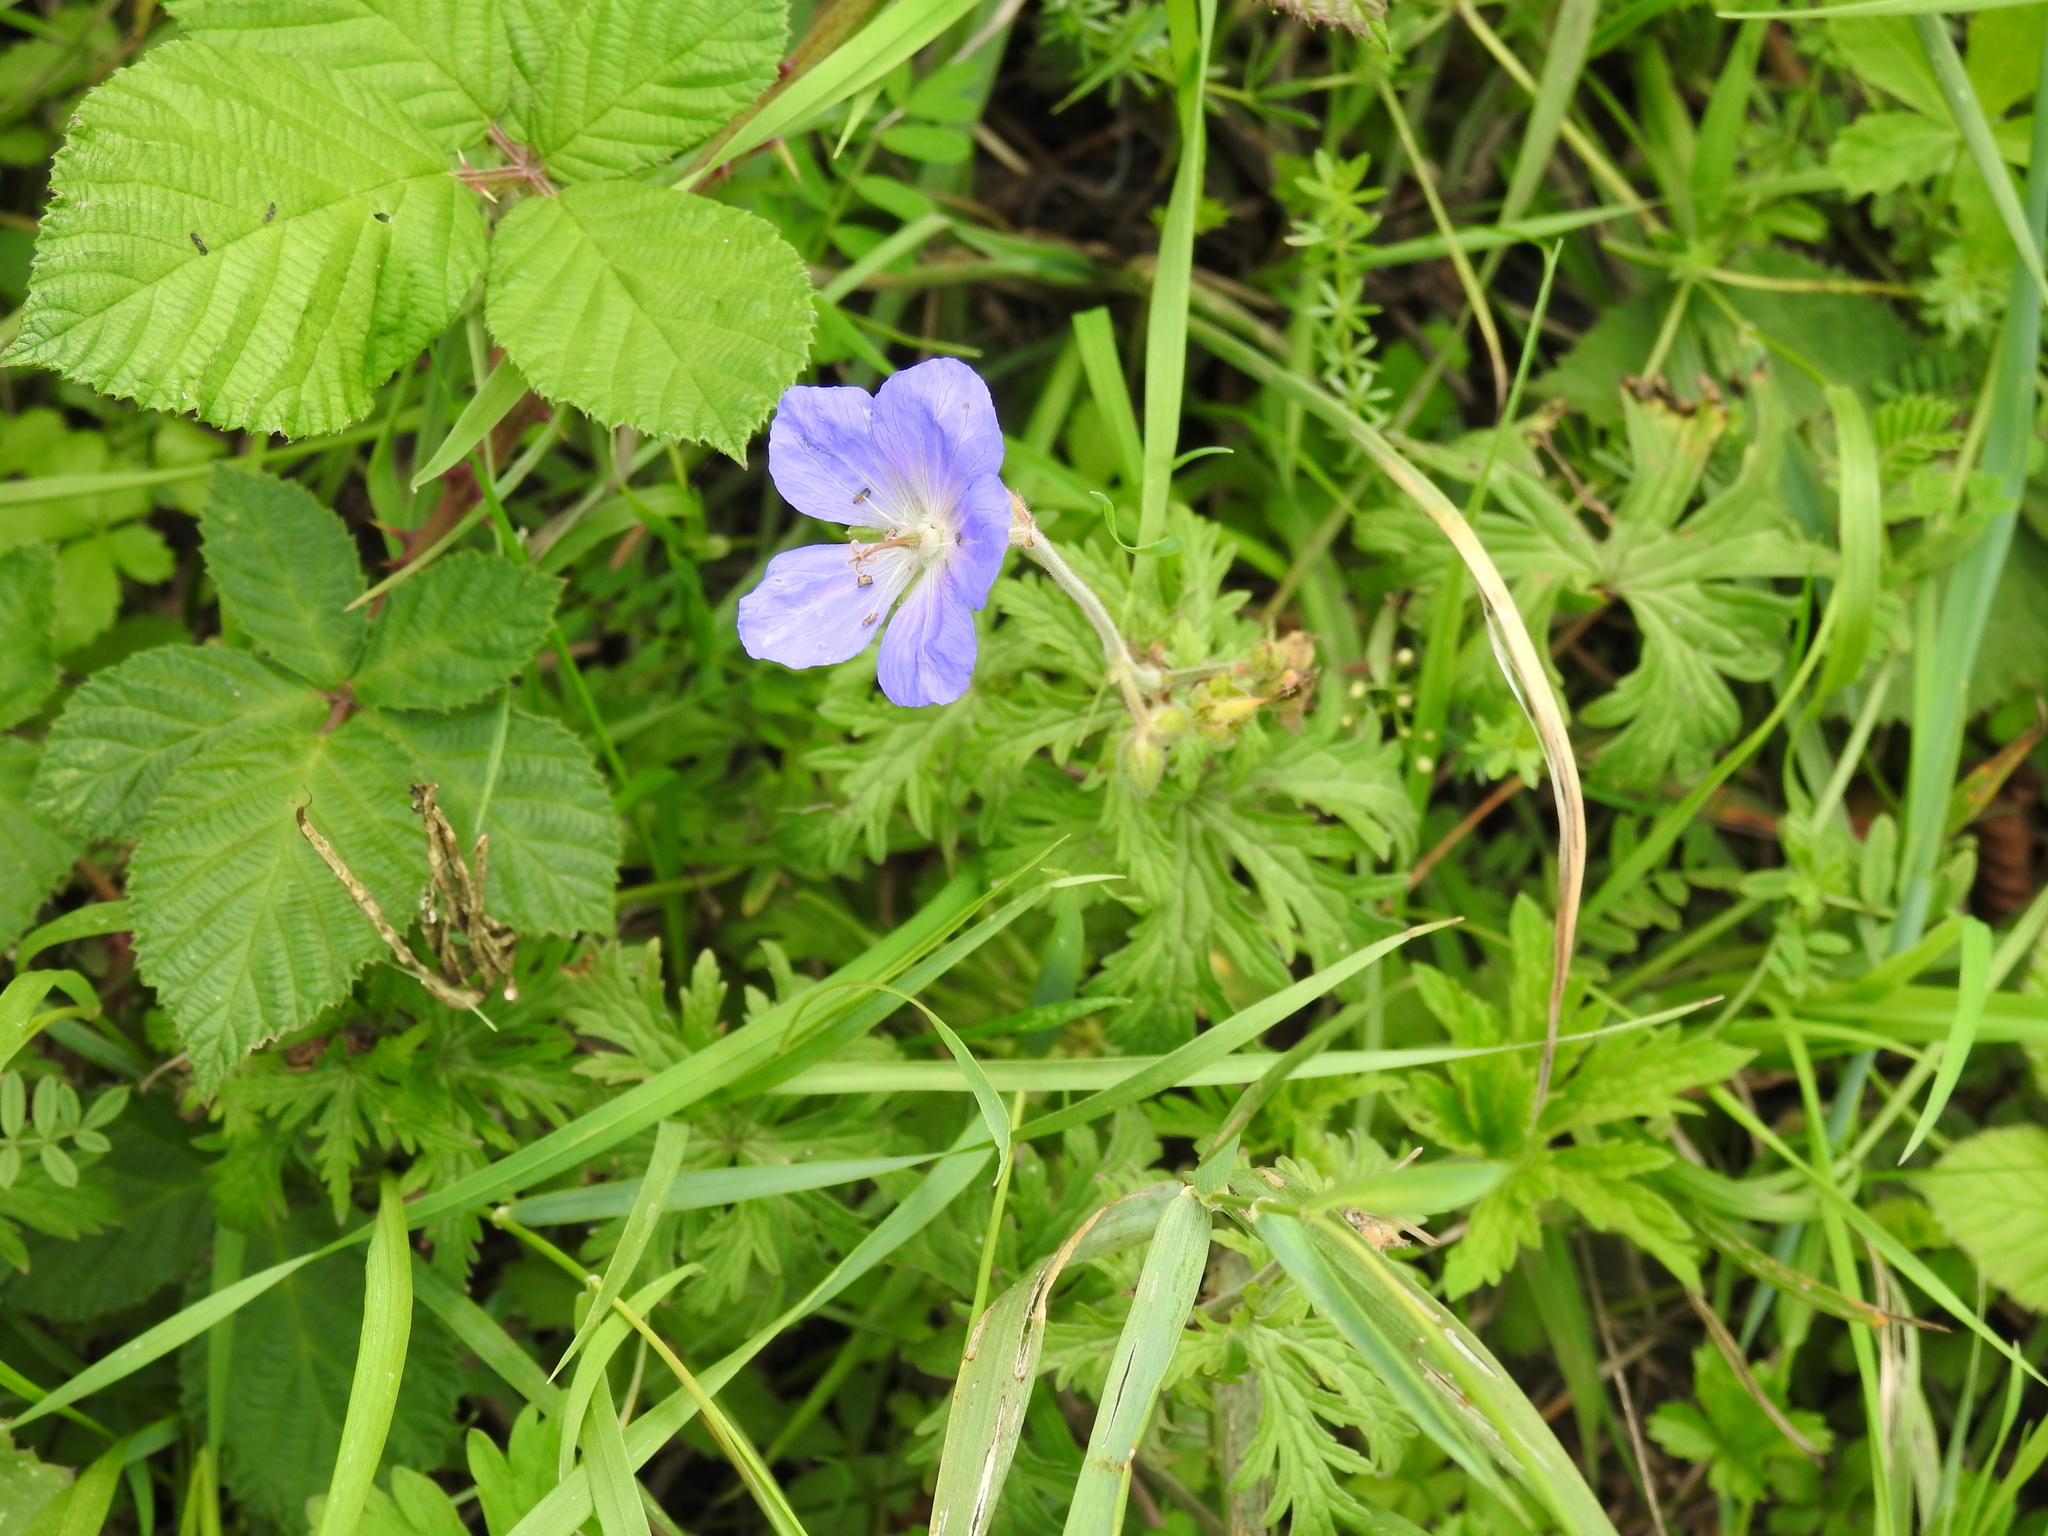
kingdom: Plantae
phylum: Tracheophyta
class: Magnoliopsida
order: Geraniales
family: Geraniaceae
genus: Geranium
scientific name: Geranium pratense
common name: Meadow crane's-bill
